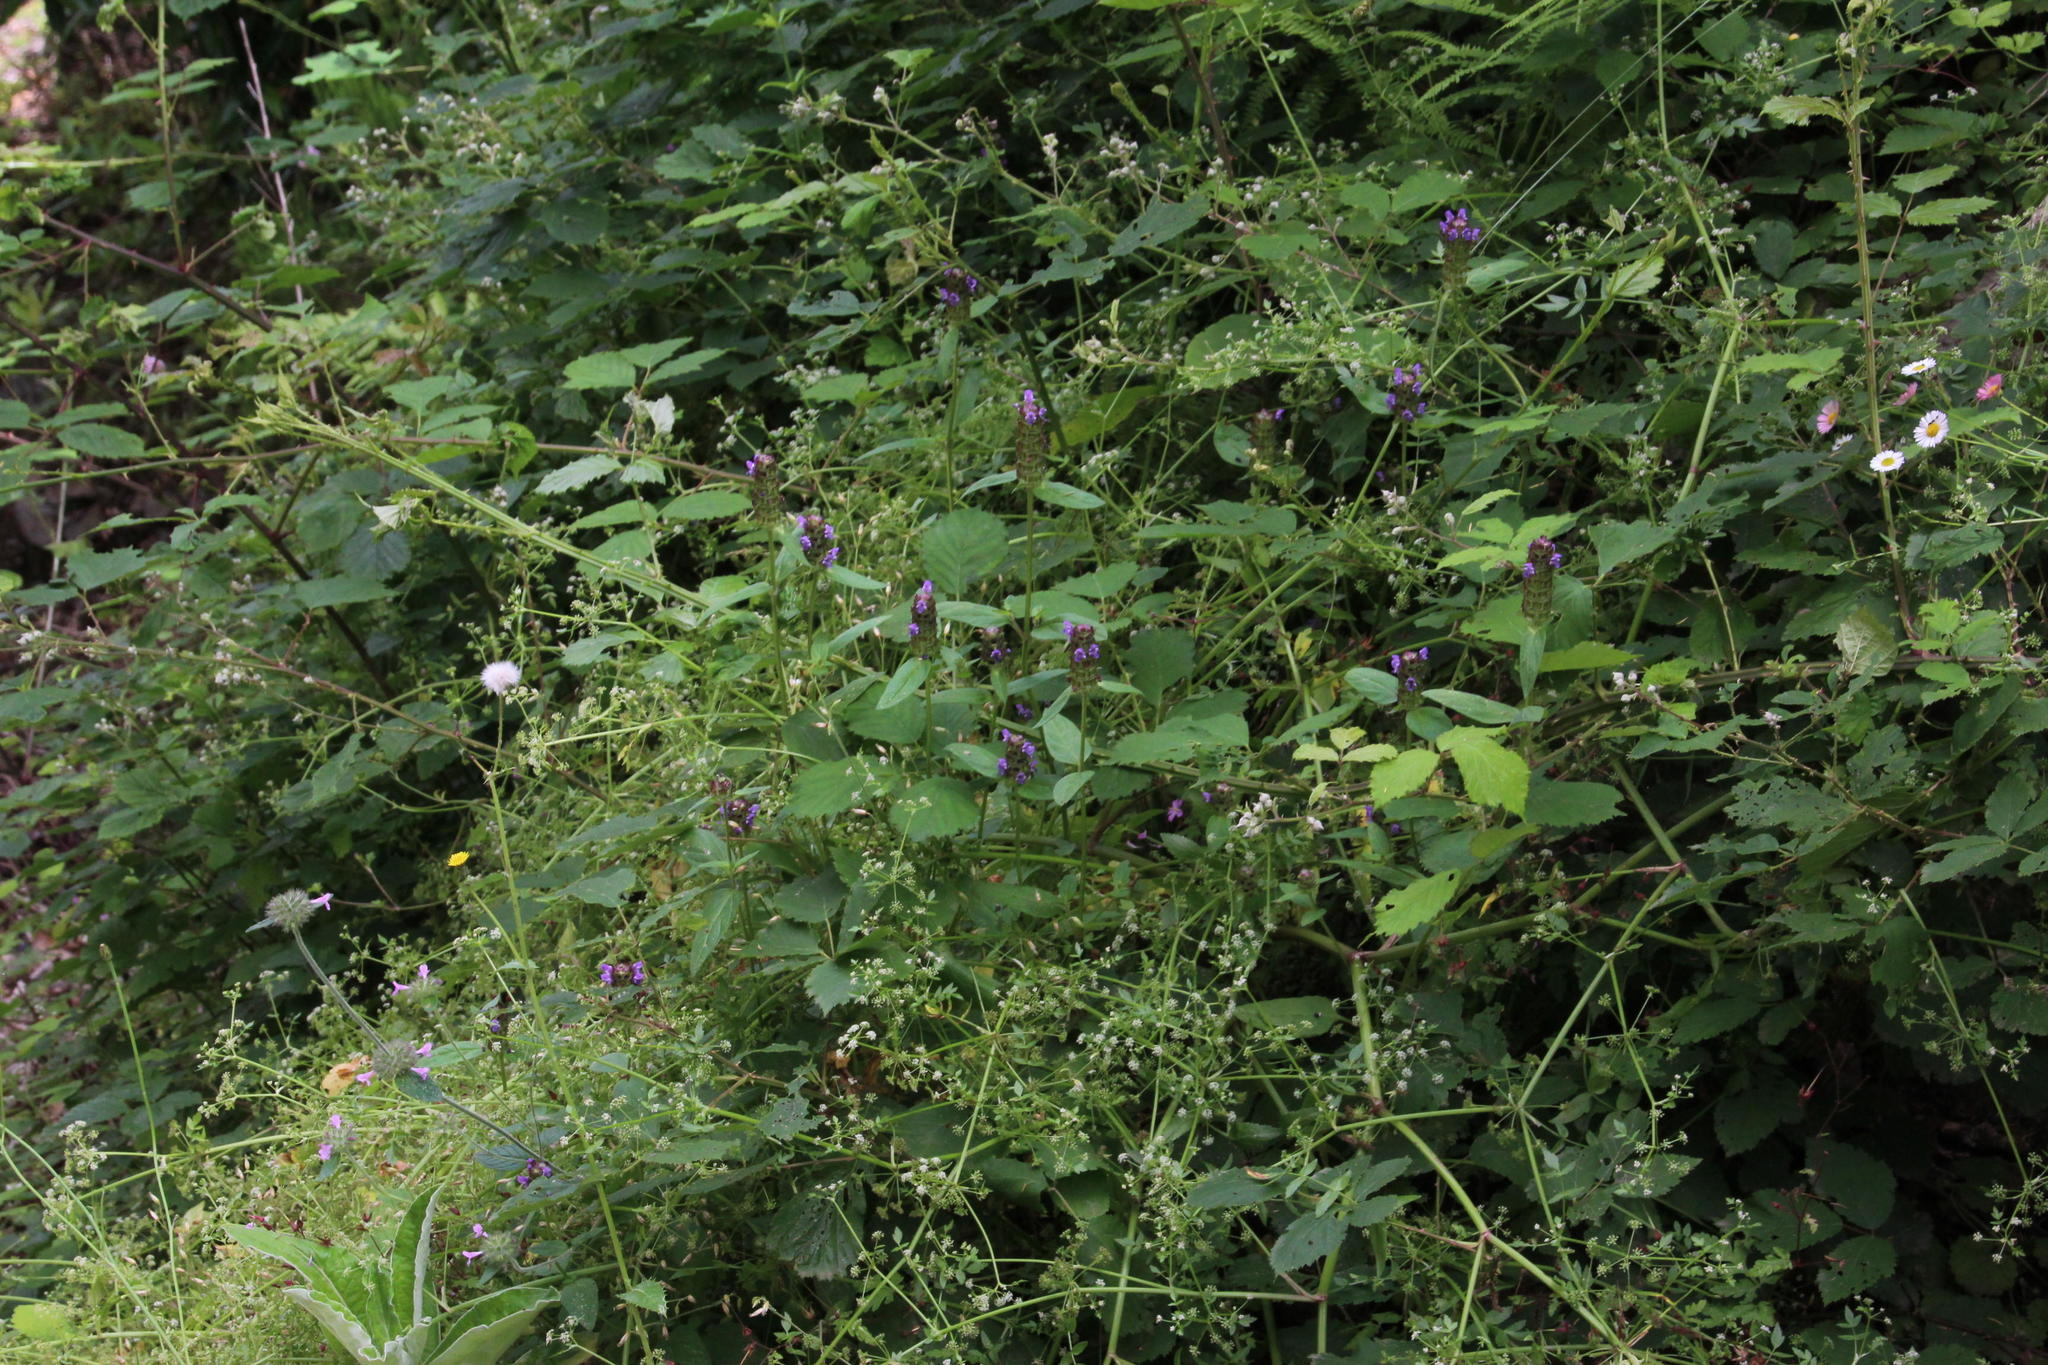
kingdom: Plantae
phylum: Tracheophyta
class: Magnoliopsida
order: Lamiales
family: Lamiaceae
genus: Prunella
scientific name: Prunella vulgaris
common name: Heal-all
